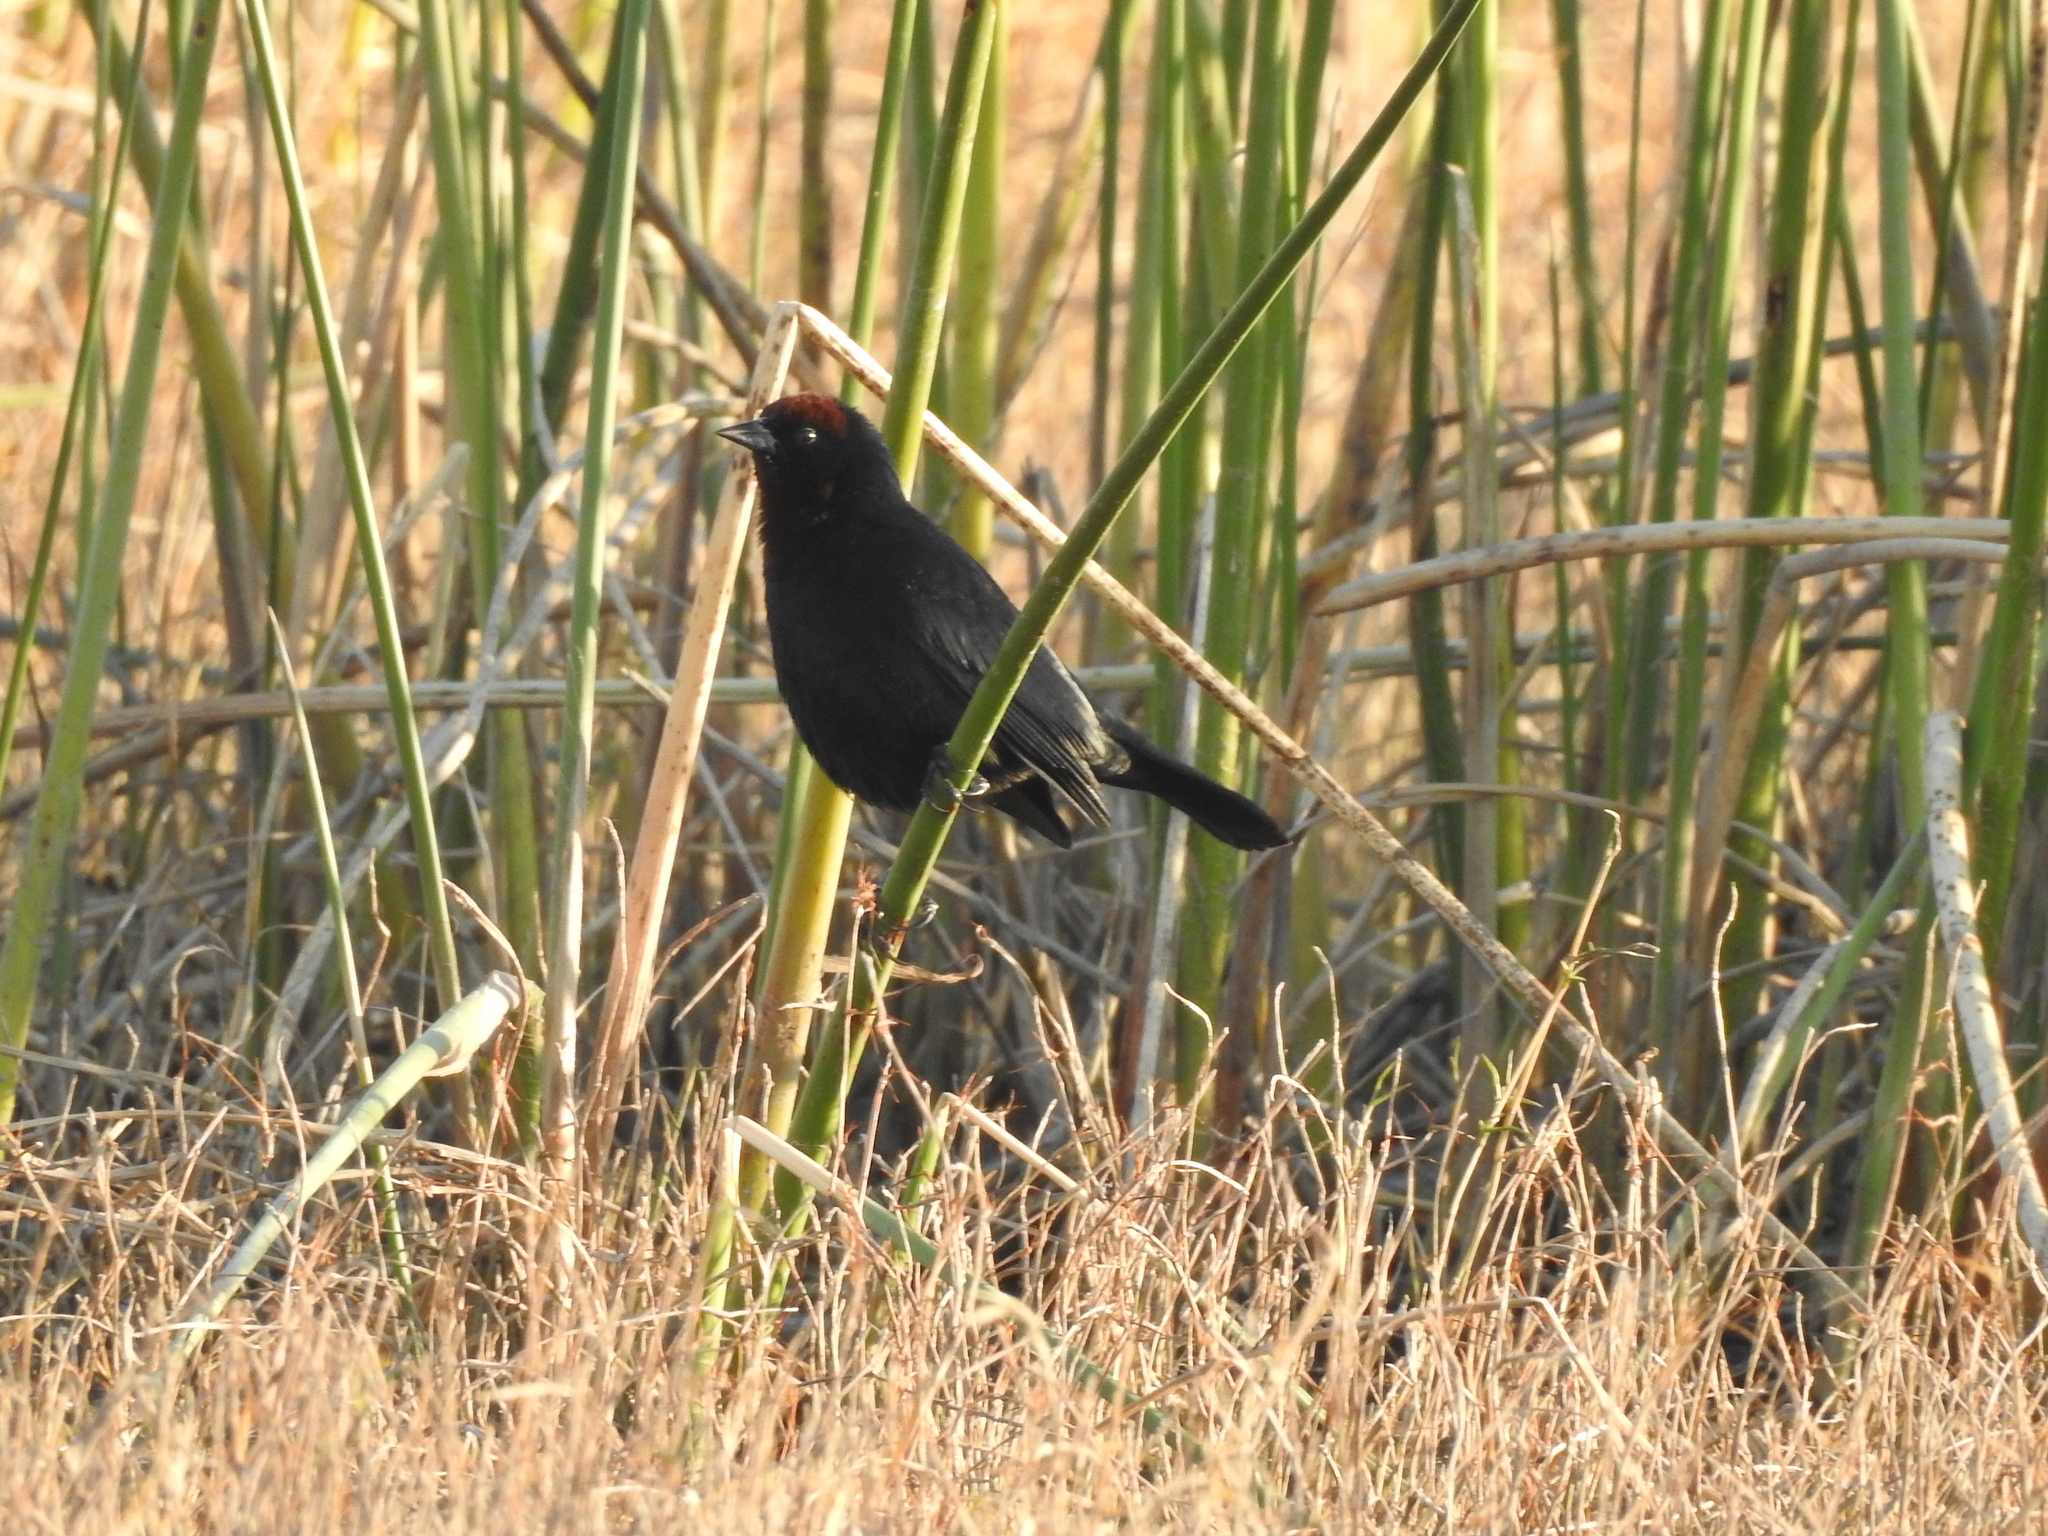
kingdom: Animalia
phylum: Chordata
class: Aves
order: Passeriformes
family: Icteridae
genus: Chrysomus
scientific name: Chrysomus ruficapillus
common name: Chestnut-capped blackbird
